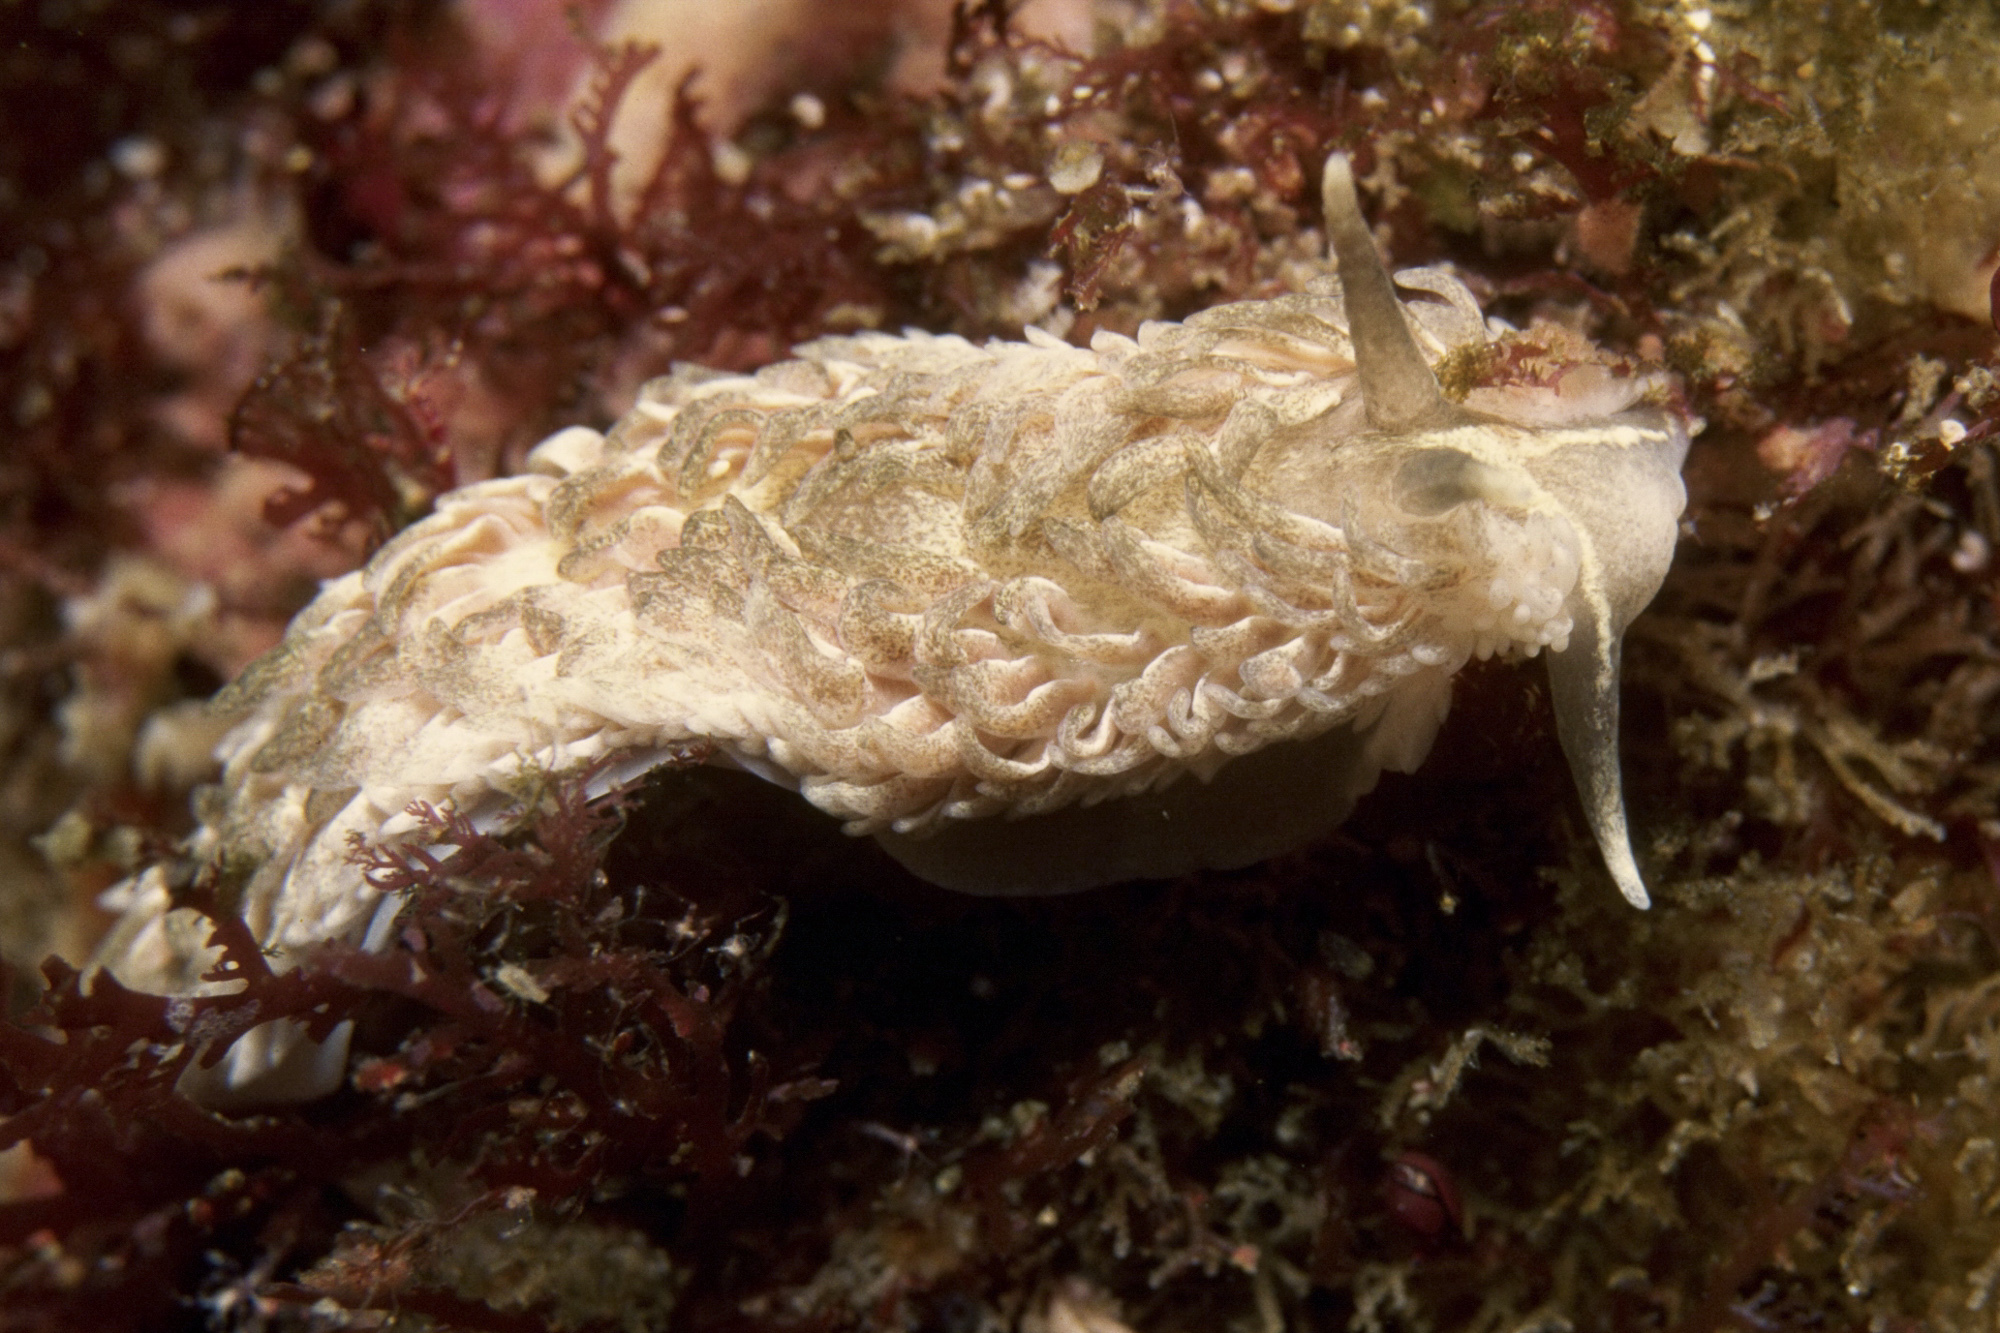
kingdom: Animalia
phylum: Mollusca
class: Gastropoda
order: Nudibranchia
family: Aeolidiidae
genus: Aeolidia
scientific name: Aeolidia filomenae
